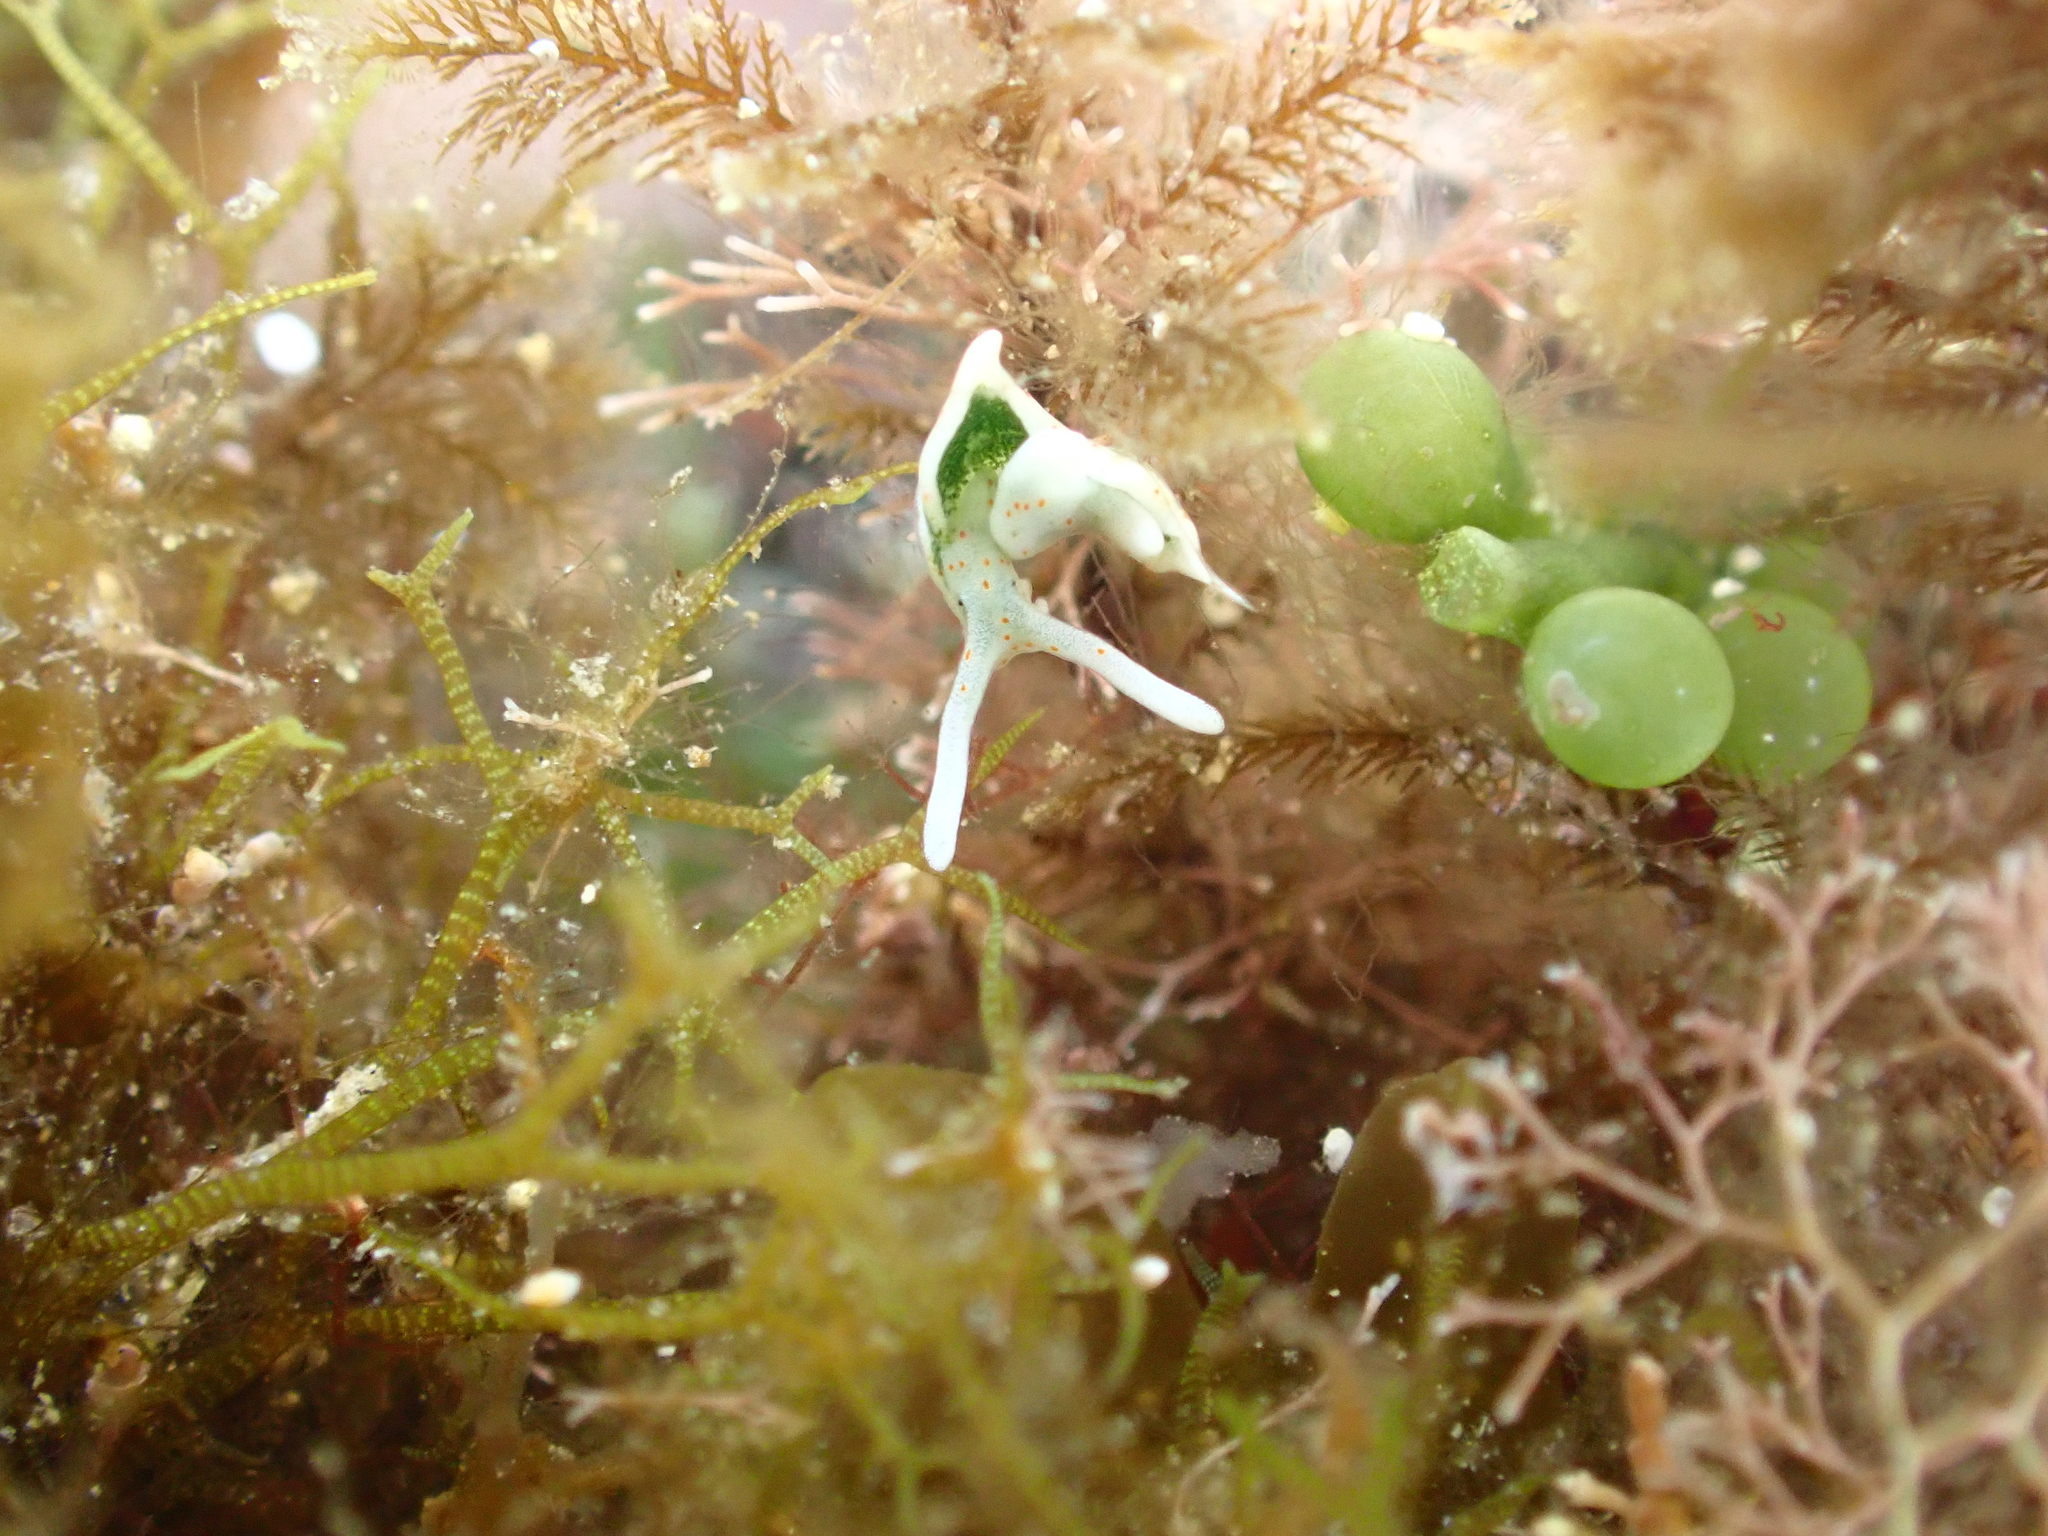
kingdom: Animalia
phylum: Mollusca
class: Gastropoda
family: Plakobranchidae
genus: Elysia
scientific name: Elysia timida
